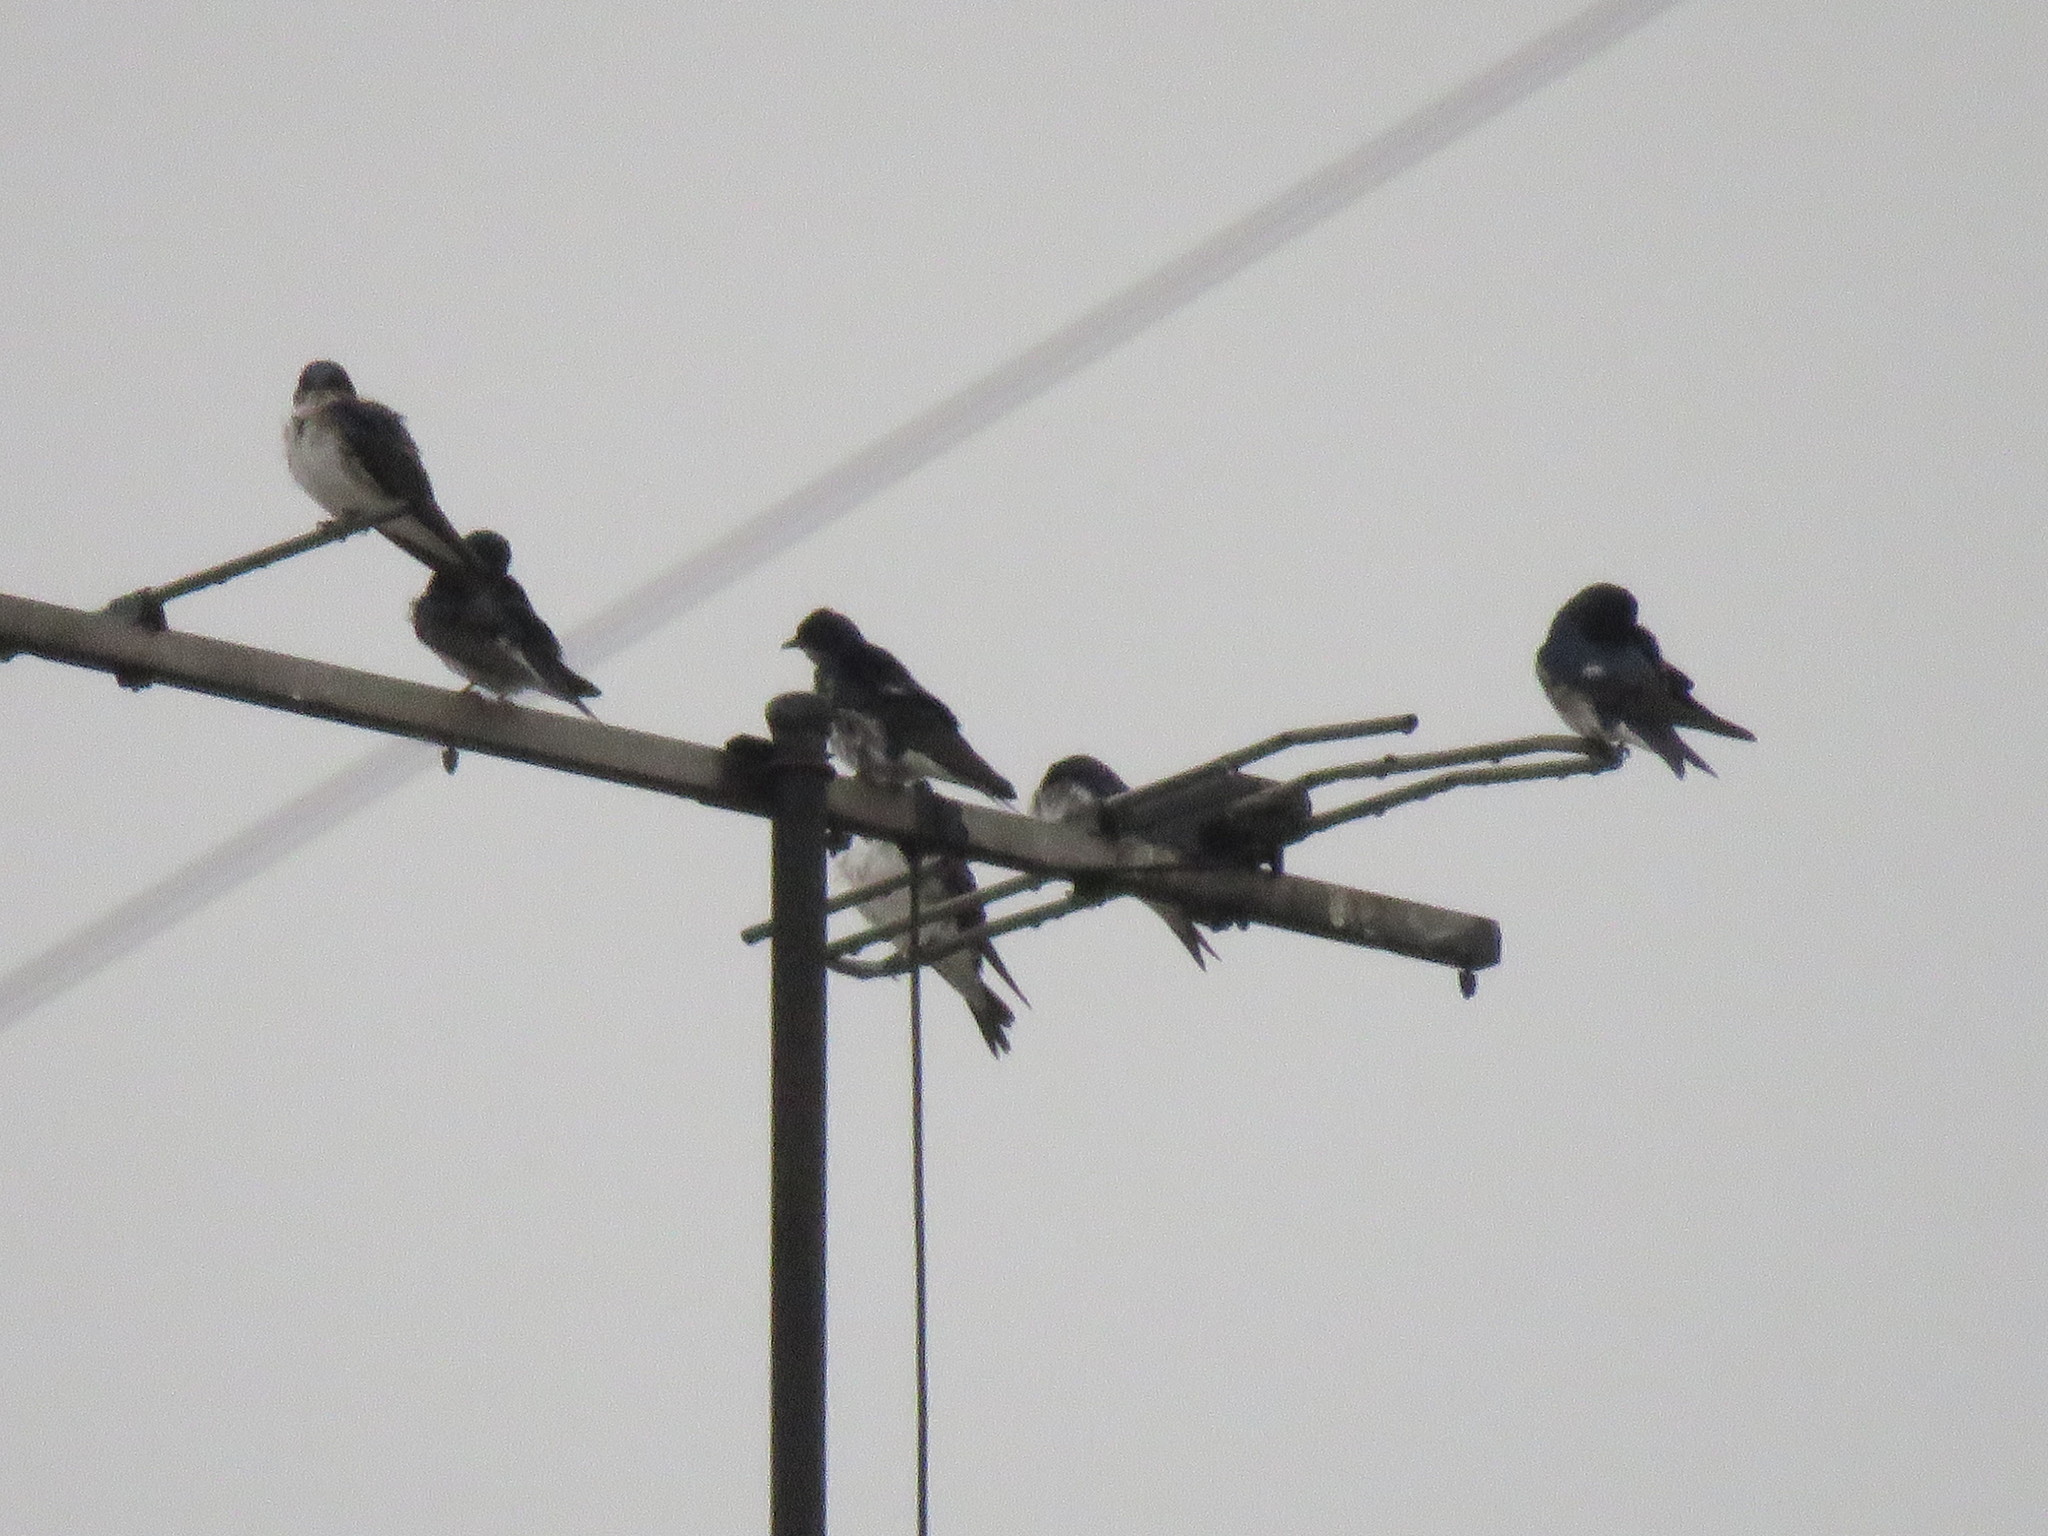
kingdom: Animalia
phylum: Chordata
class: Aves
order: Passeriformes
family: Hirundinidae
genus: Progne
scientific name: Progne chalybea
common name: Grey-breasted martin
